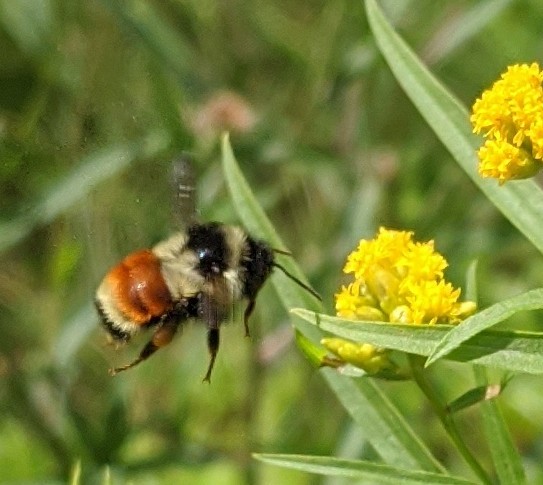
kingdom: Animalia
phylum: Arthropoda
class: Insecta
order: Hymenoptera
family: Apidae
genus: Bombus
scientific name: Bombus ternarius
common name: Tri-colored bumble bee
